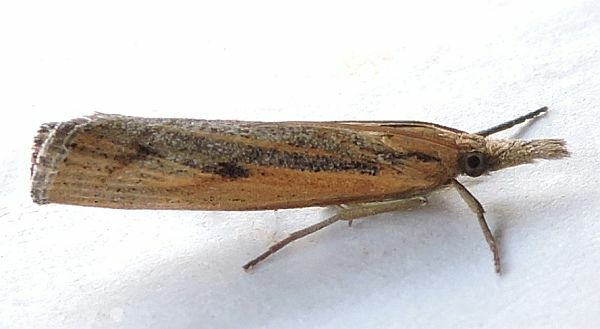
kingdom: Animalia
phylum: Arthropoda
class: Insecta
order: Lepidoptera
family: Crambidae
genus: Pediasia
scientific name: Pediasia trisecta
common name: Sod webworm moth
